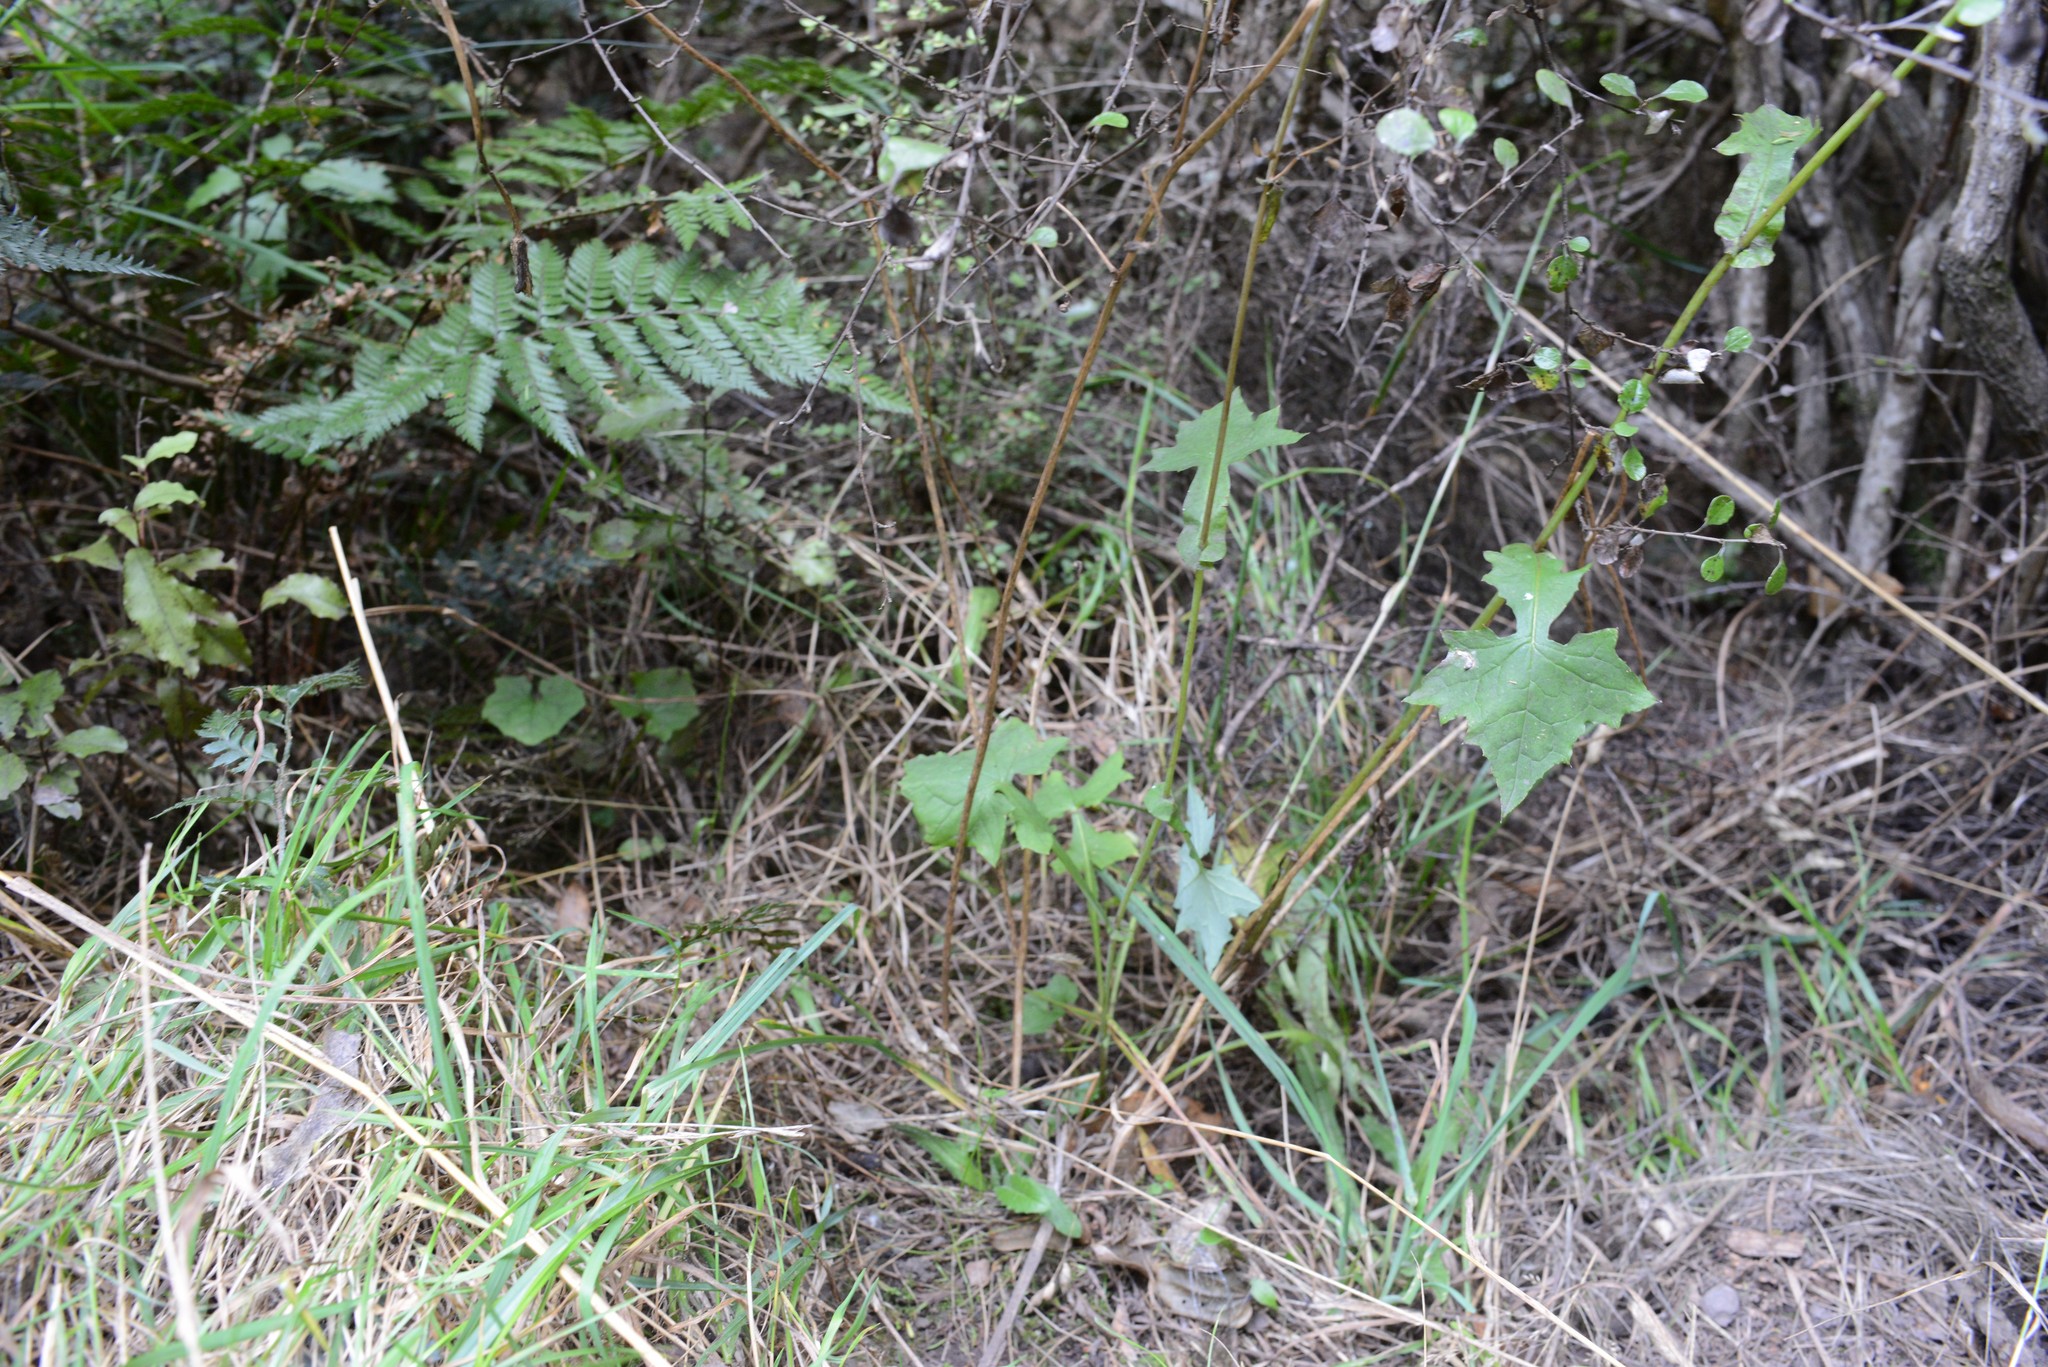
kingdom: Plantae
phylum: Tracheophyta
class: Magnoliopsida
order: Asterales
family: Asteraceae
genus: Mycelis
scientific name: Mycelis muralis
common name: Wall lettuce
